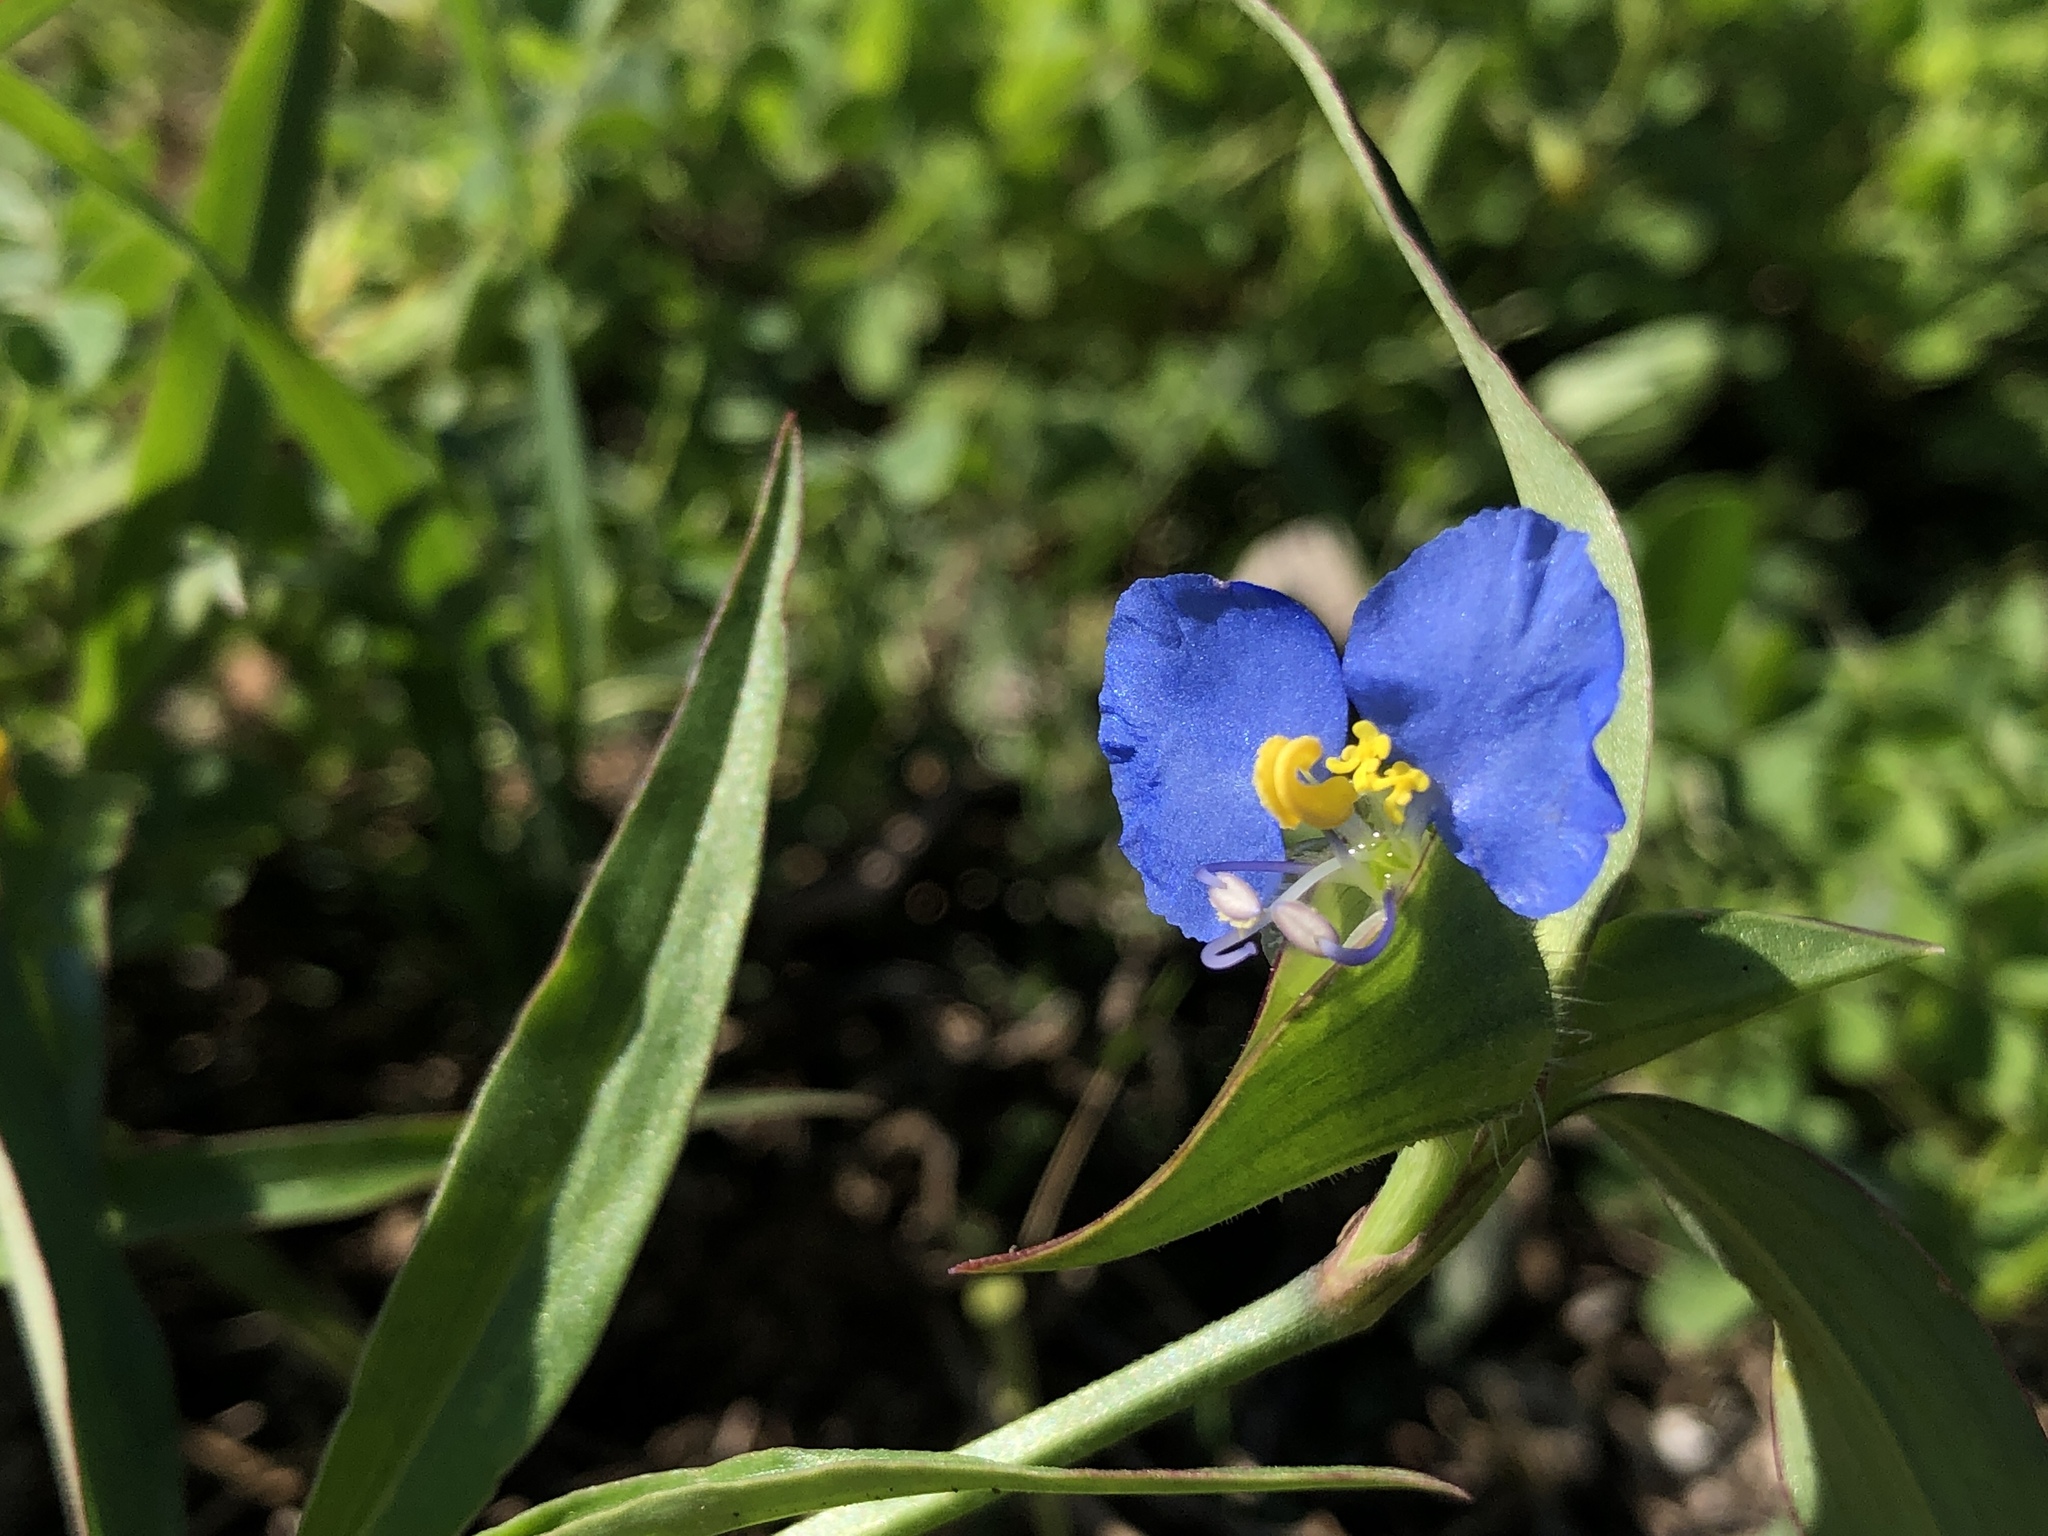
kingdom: Plantae
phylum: Tracheophyta
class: Liliopsida
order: Commelinales
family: Commelinaceae
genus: Commelina
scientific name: Commelina erecta
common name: Blousel blommetjie
